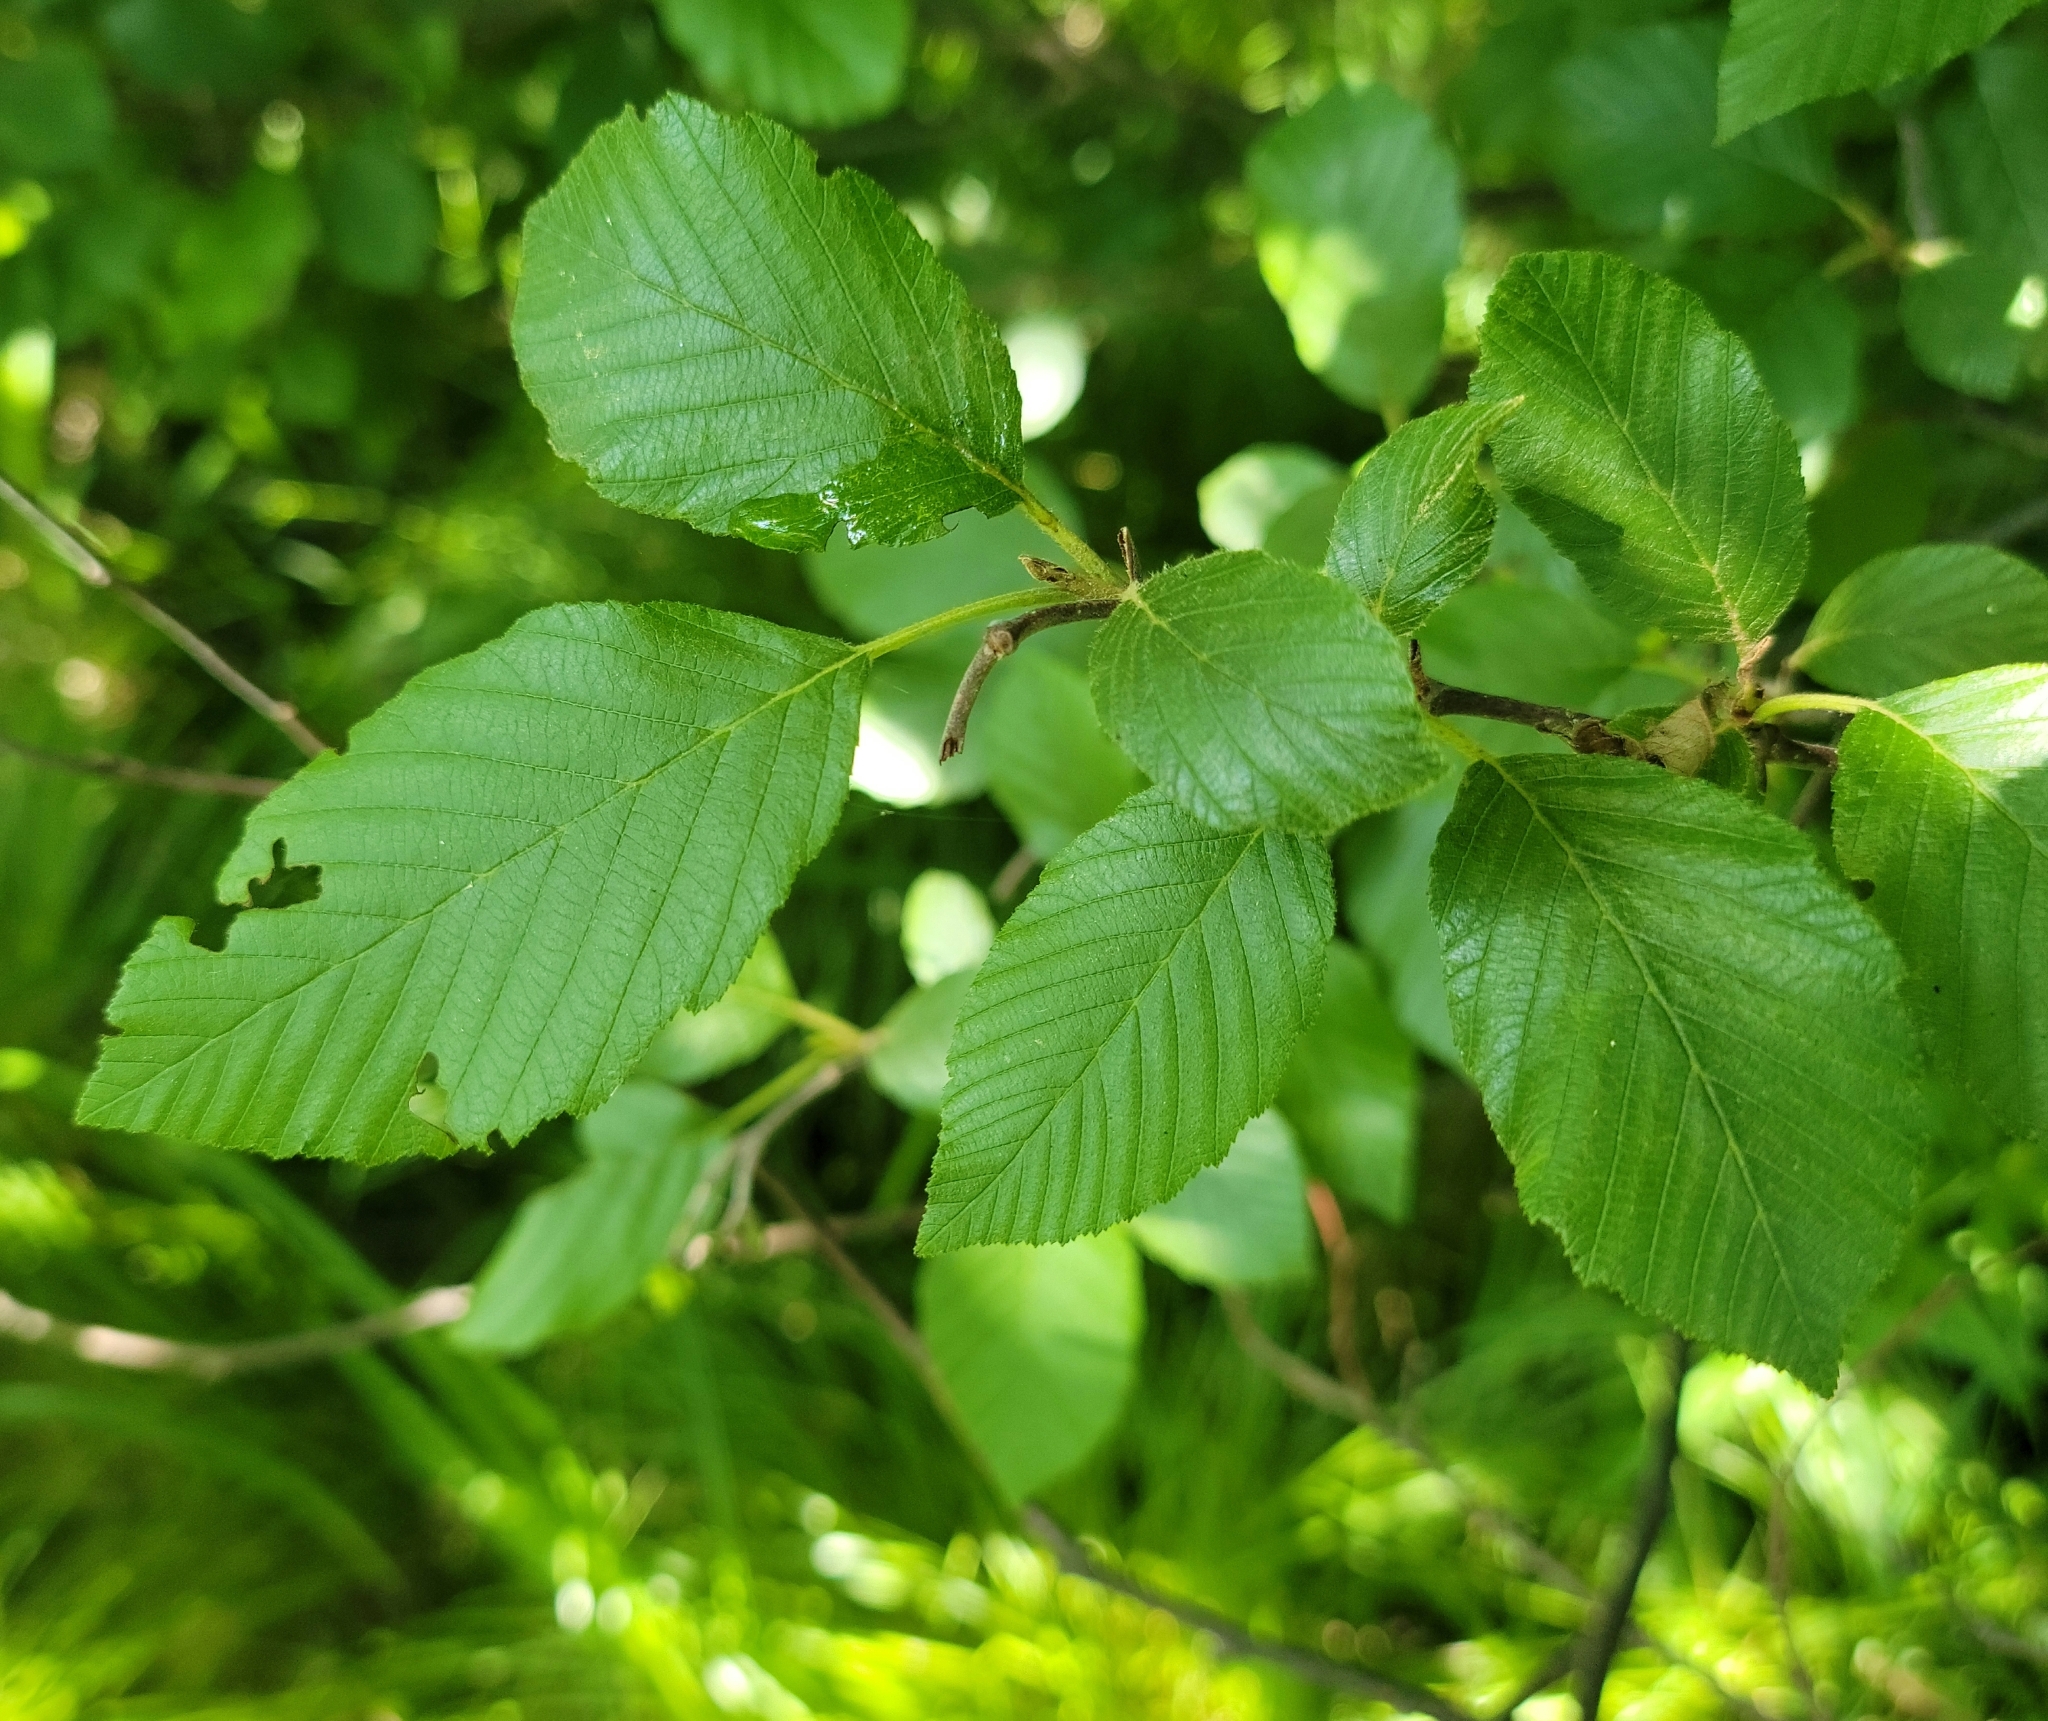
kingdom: Plantae
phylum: Tracheophyta
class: Magnoliopsida
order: Fagales
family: Betulaceae
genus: Alnus
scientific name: Alnus incana
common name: Grey alder
